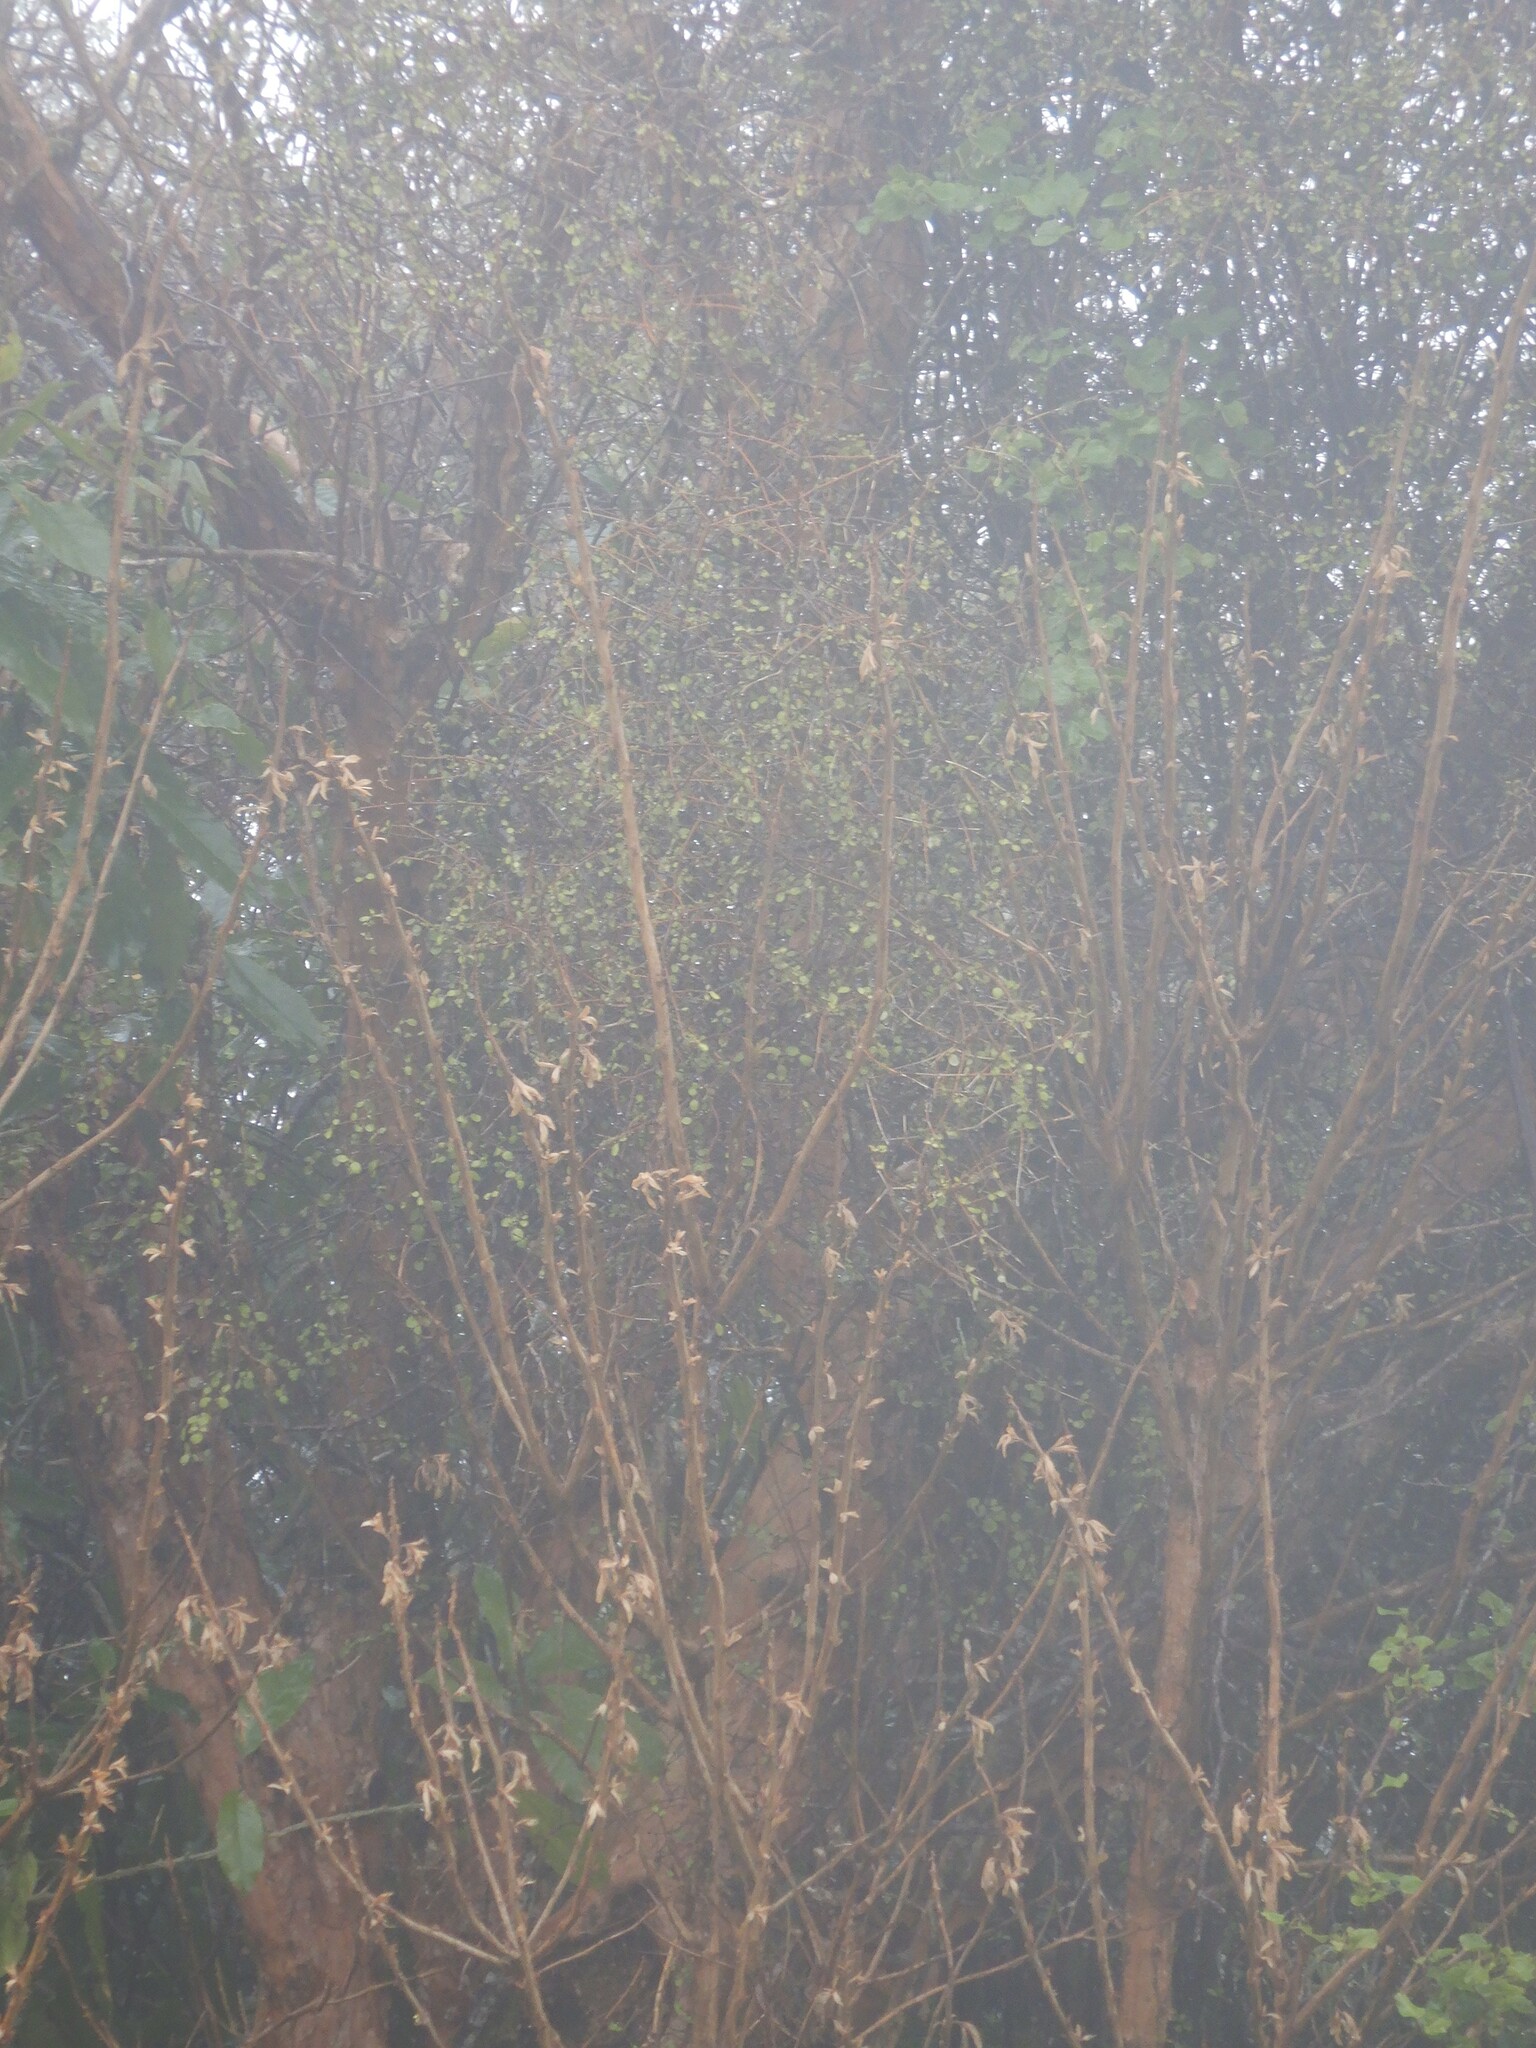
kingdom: Plantae
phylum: Tracheophyta
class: Magnoliopsida
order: Myrtales
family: Onagraceae
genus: Fuchsia
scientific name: Fuchsia excorticata
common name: Tree fuchsia
